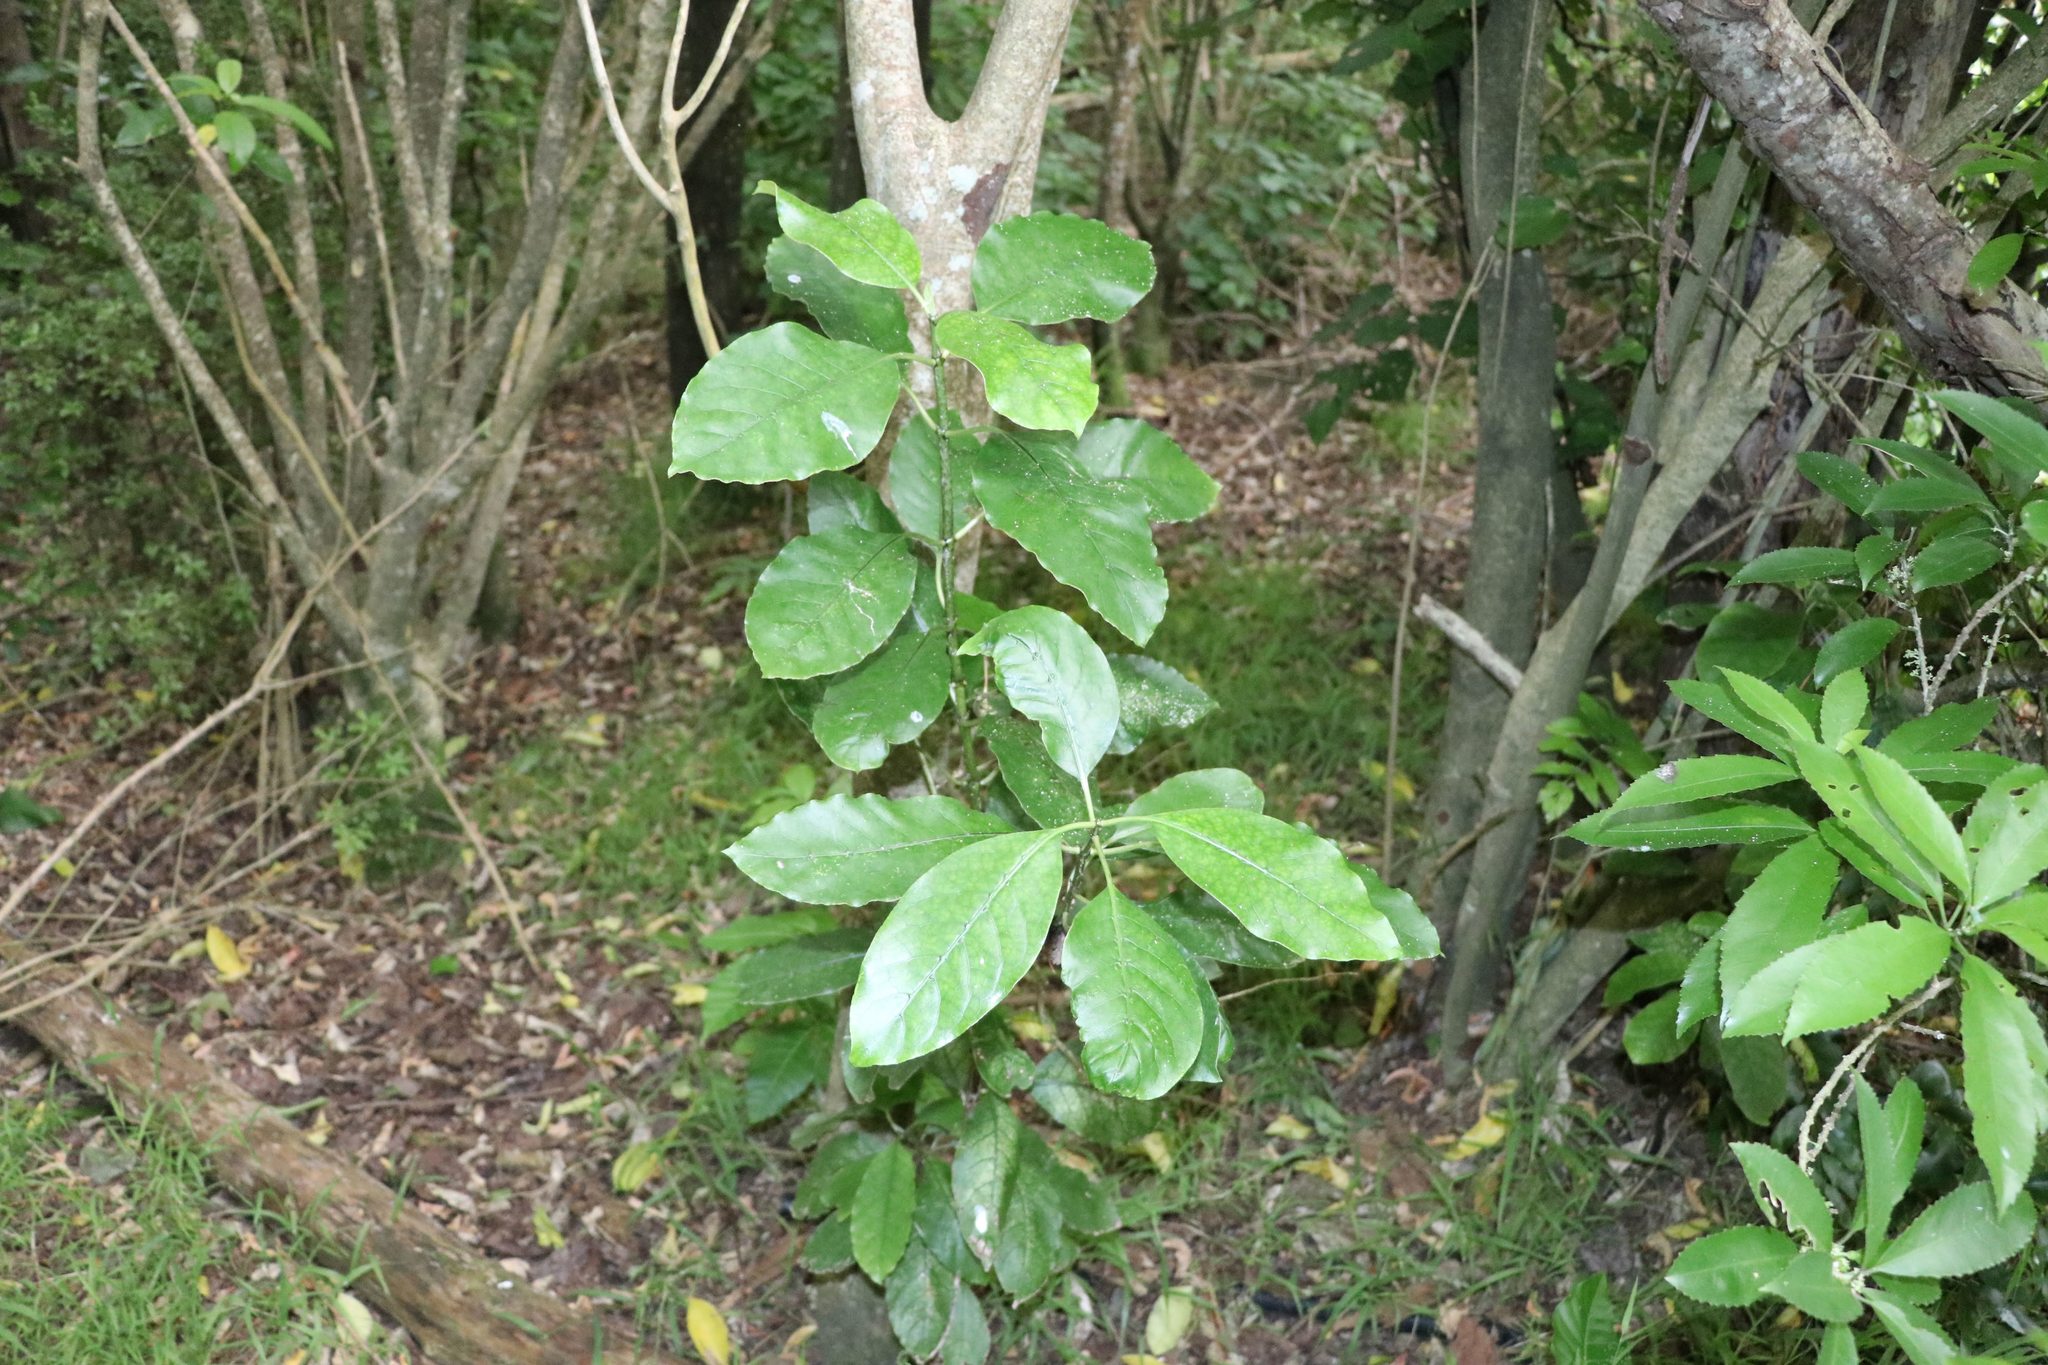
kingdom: Plantae
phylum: Tracheophyta
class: Magnoliopsida
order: Gentianales
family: Rubiaceae
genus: Coprosma
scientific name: Coprosma autumnalis
